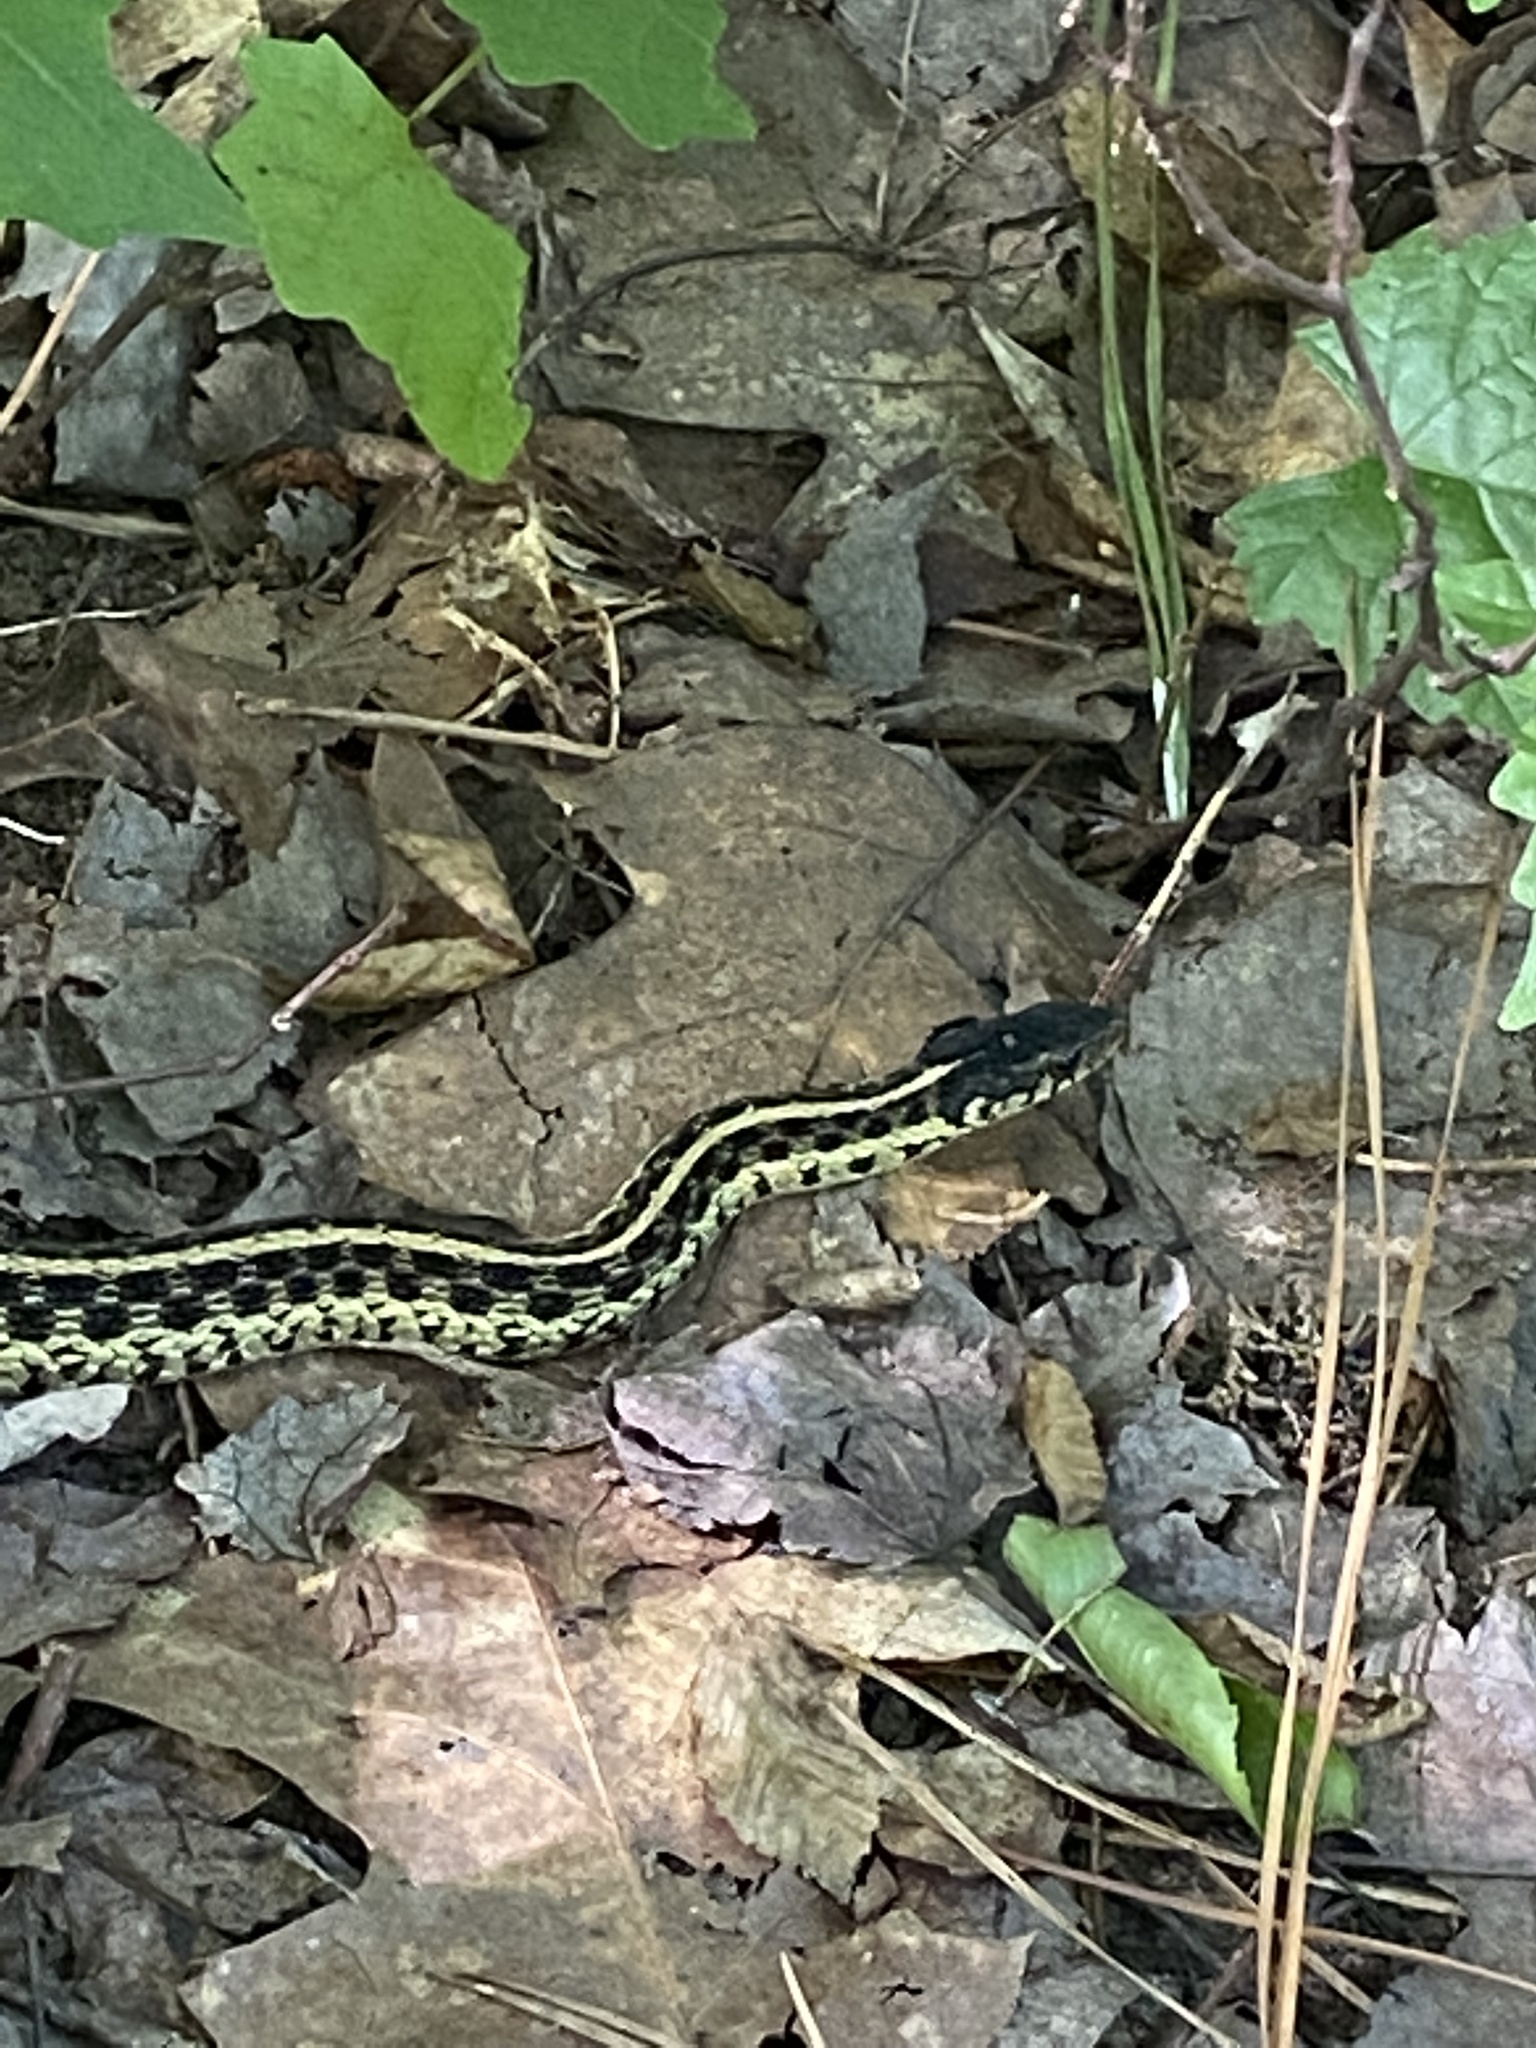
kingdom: Animalia
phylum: Chordata
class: Squamata
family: Colubridae
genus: Thamnophis
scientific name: Thamnophis sirtalis
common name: Common garter snake
